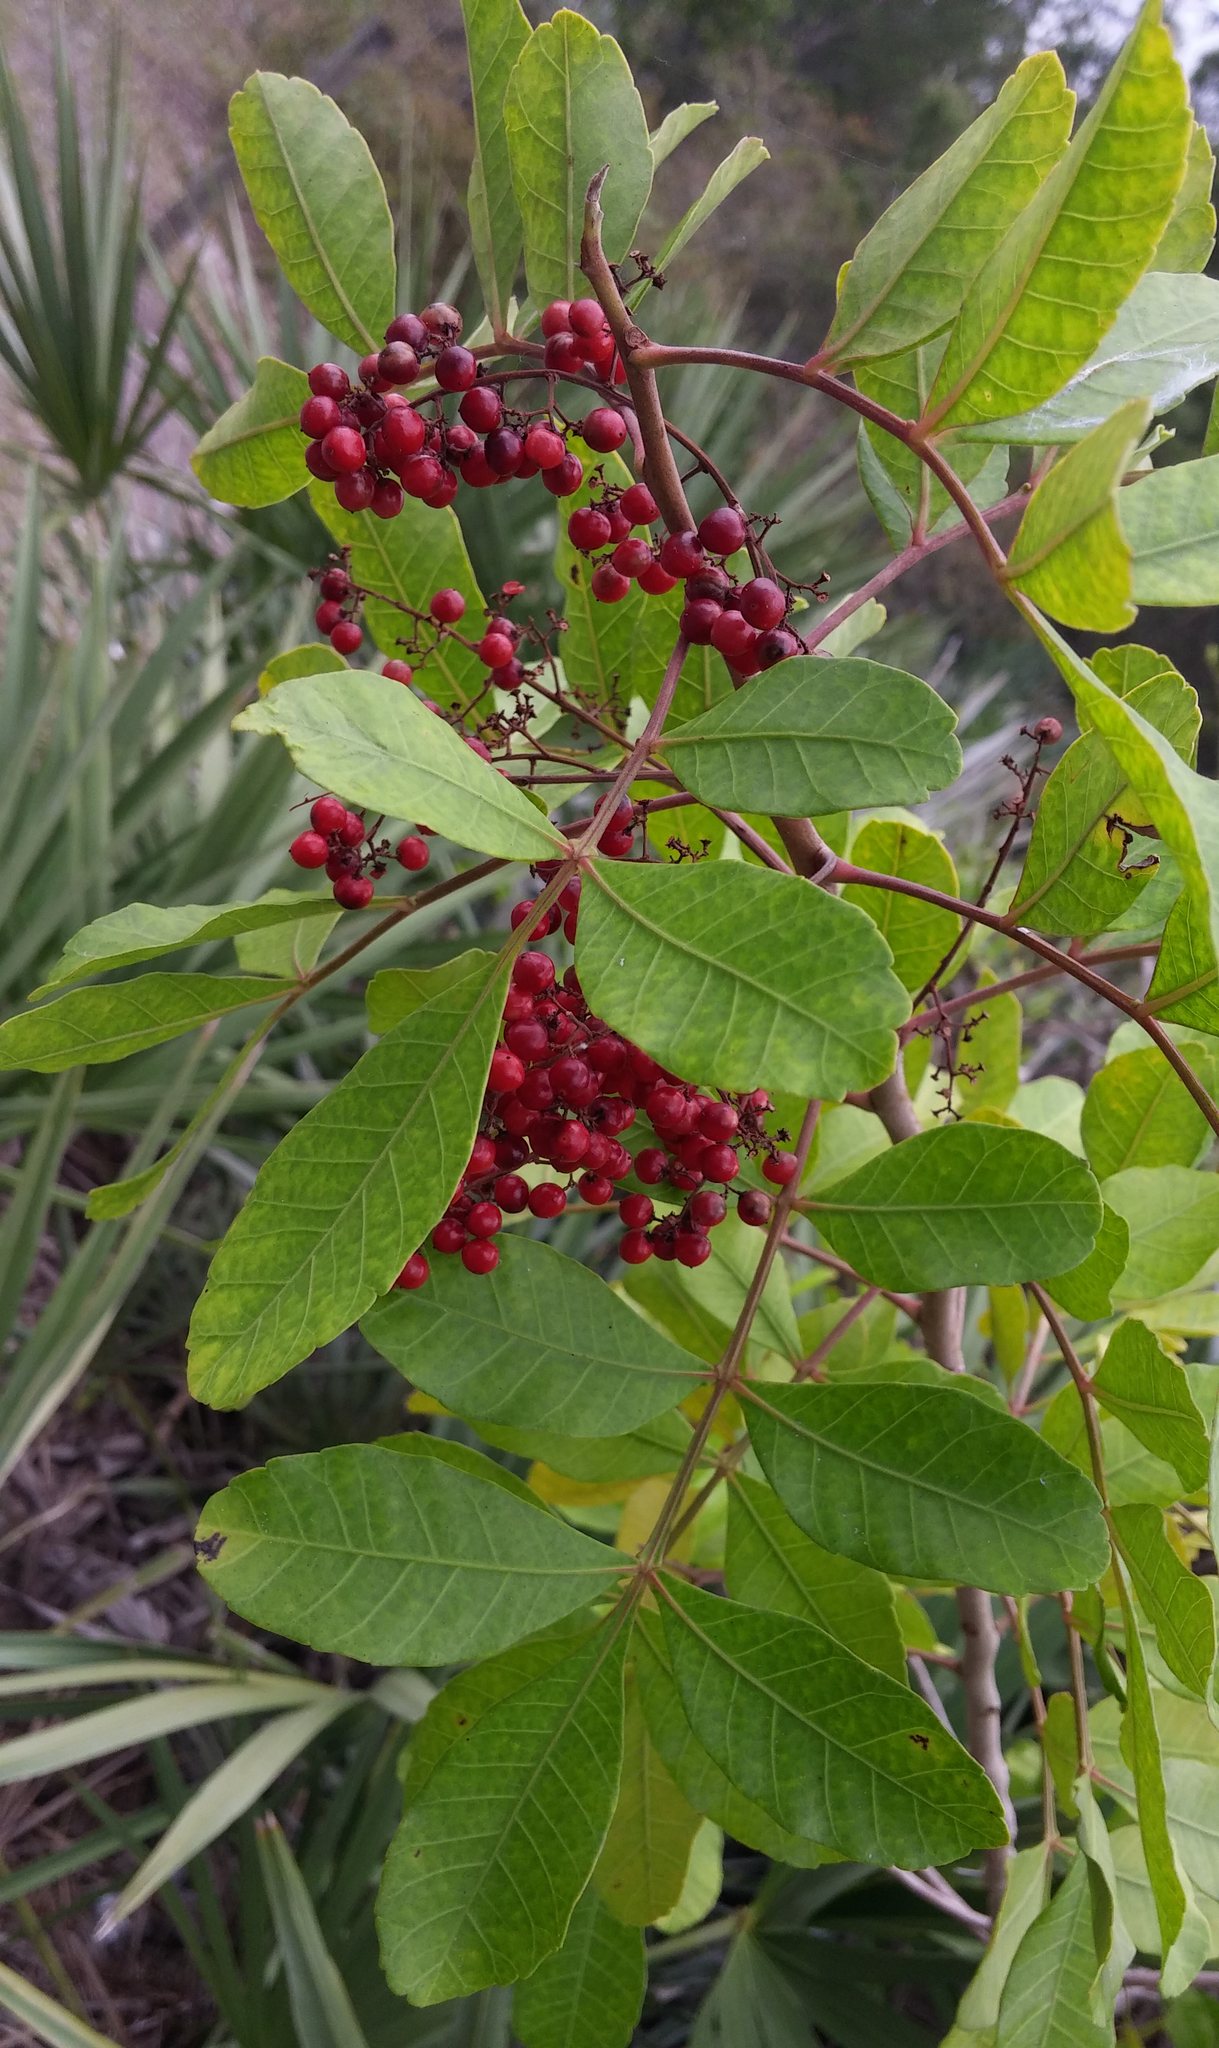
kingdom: Plantae
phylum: Tracheophyta
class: Magnoliopsida
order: Sapindales
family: Anacardiaceae
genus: Schinus
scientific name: Schinus terebinthifolia
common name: Brazilian peppertree
